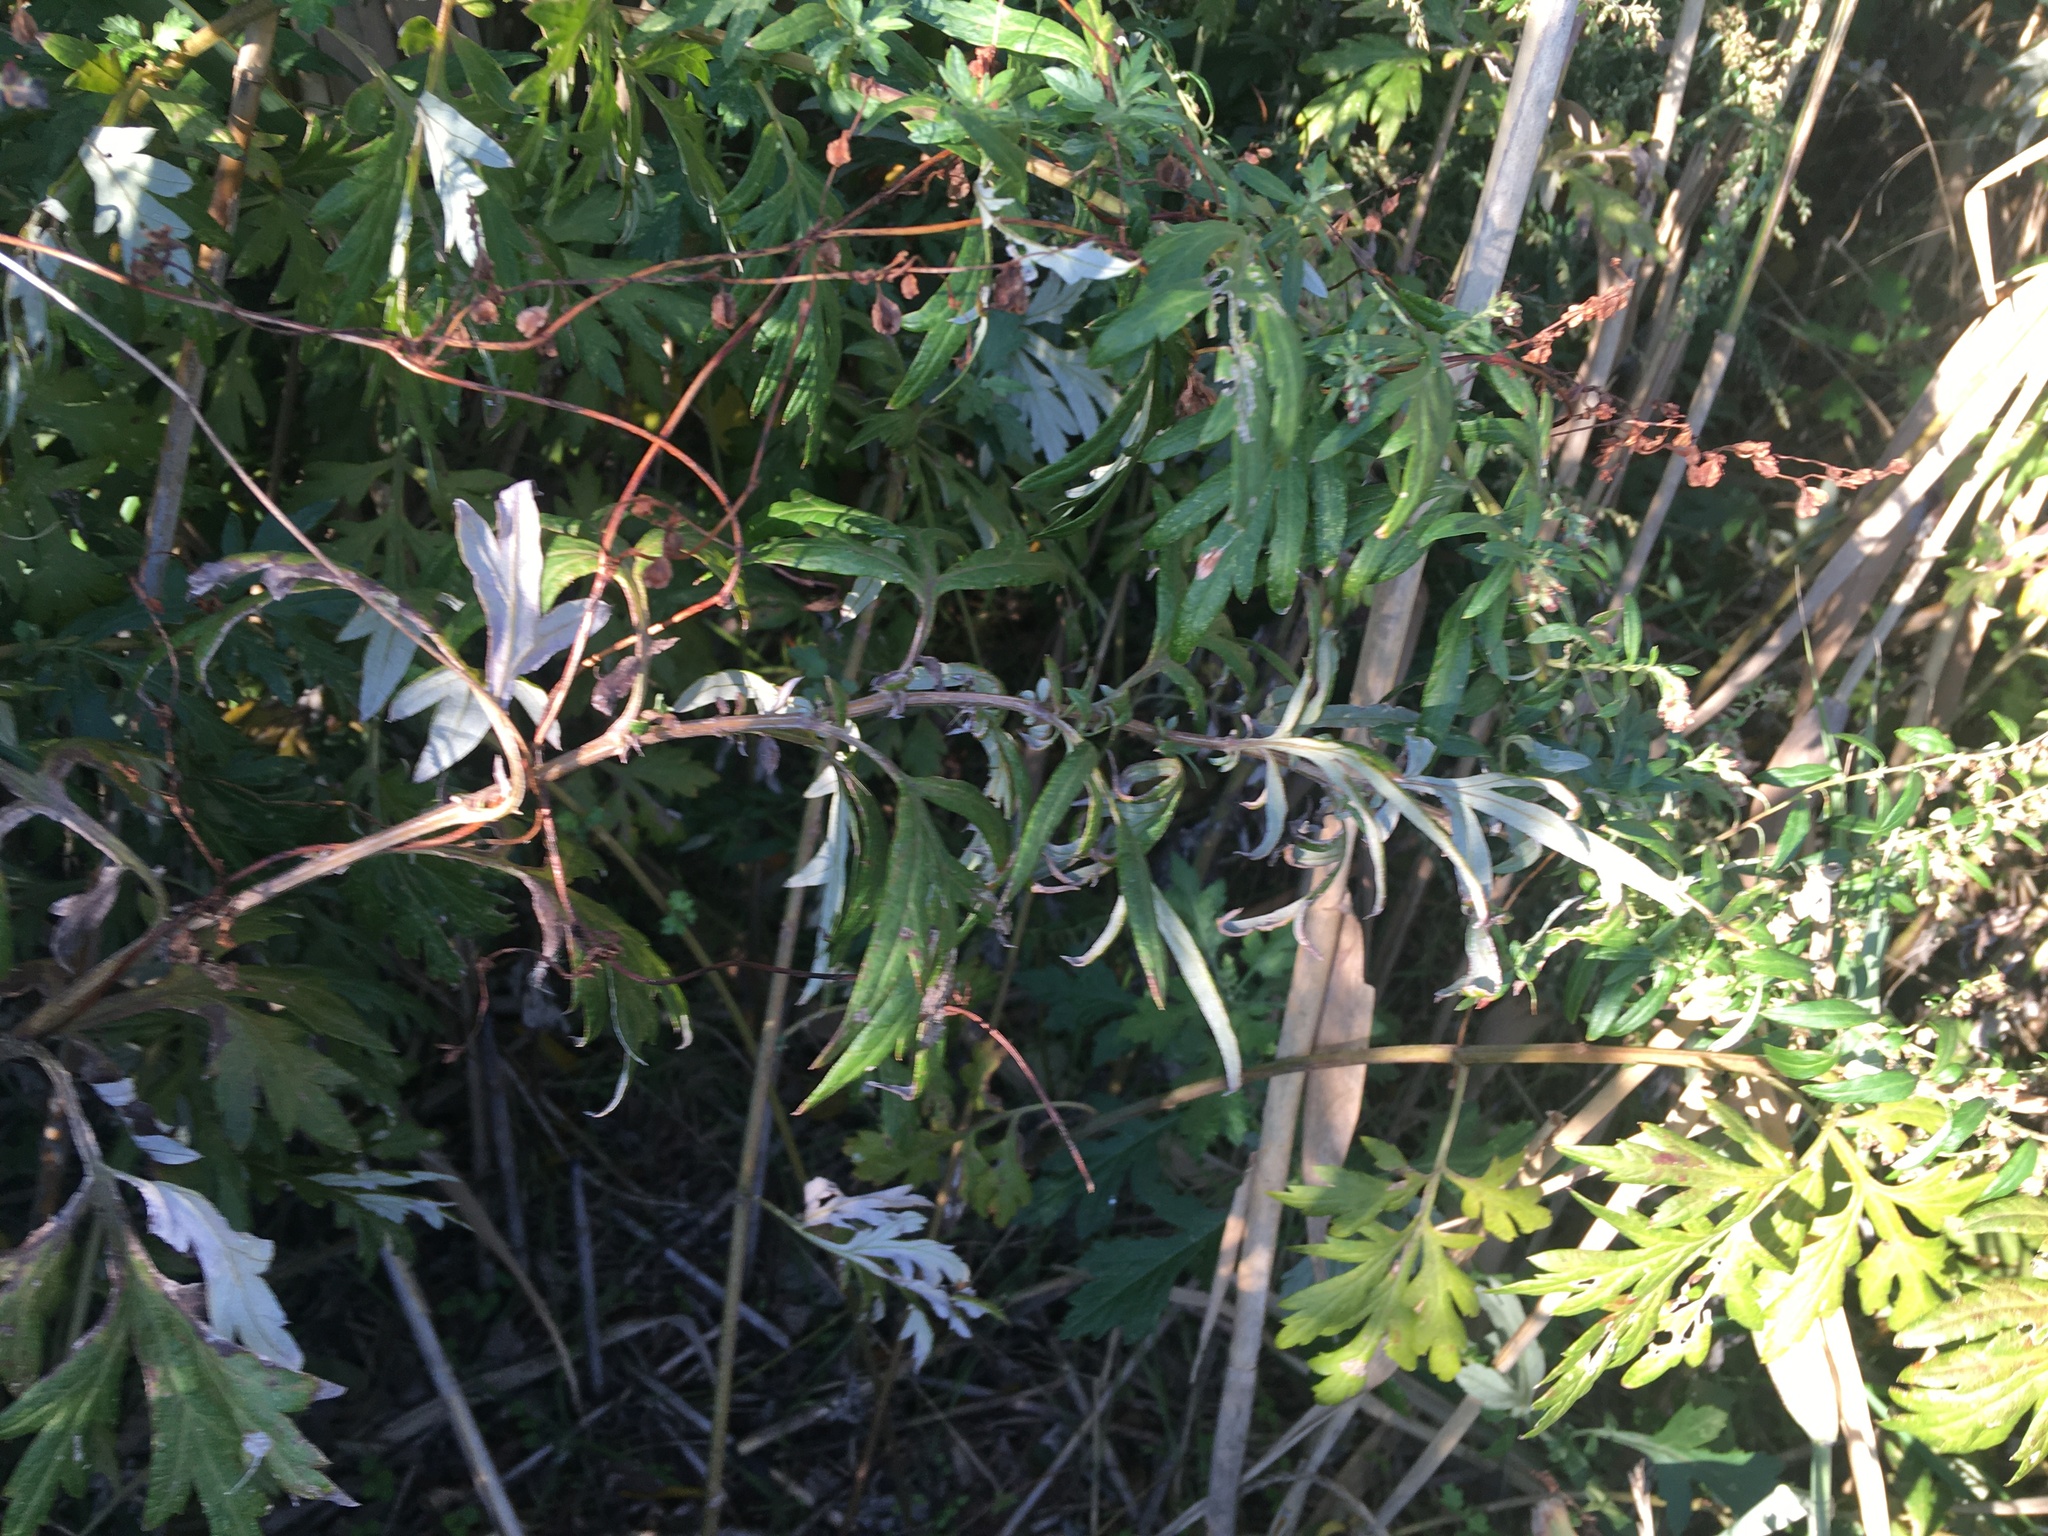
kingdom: Plantae
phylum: Tracheophyta
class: Magnoliopsida
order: Asterales
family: Asteraceae
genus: Artemisia
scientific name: Artemisia vulgaris
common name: Mugwort
